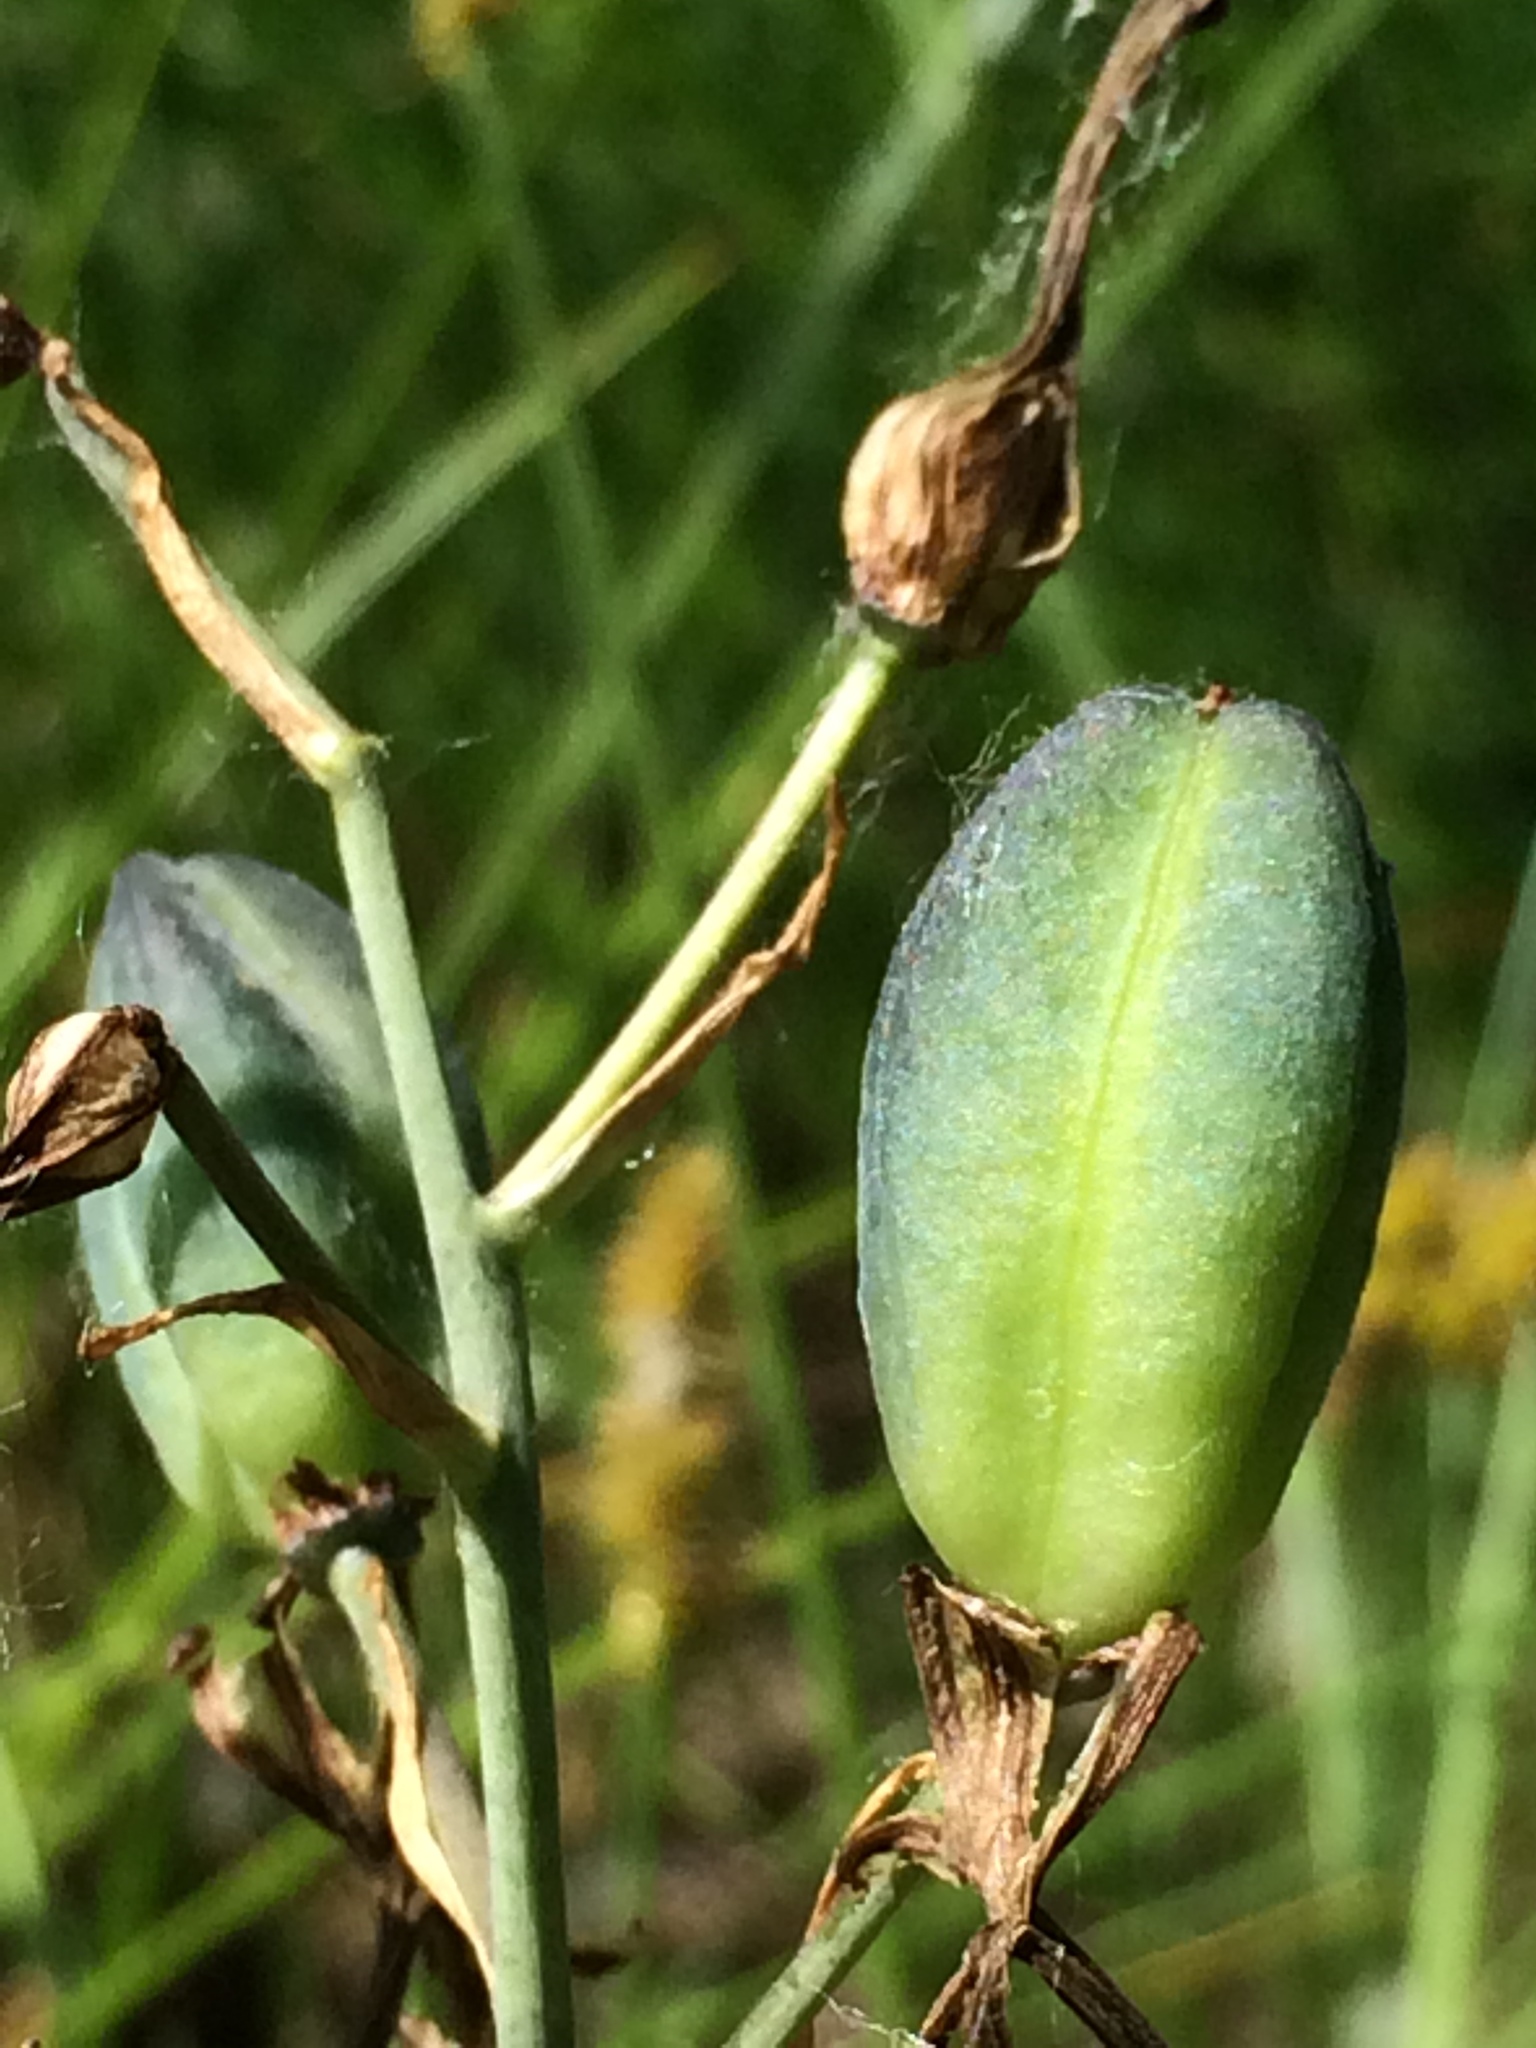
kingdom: Plantae
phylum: Tracheophyta
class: Liliopsida
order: Asparagales
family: Asparagaceae
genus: Camassia
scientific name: Camassia quamash
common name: Common camas
